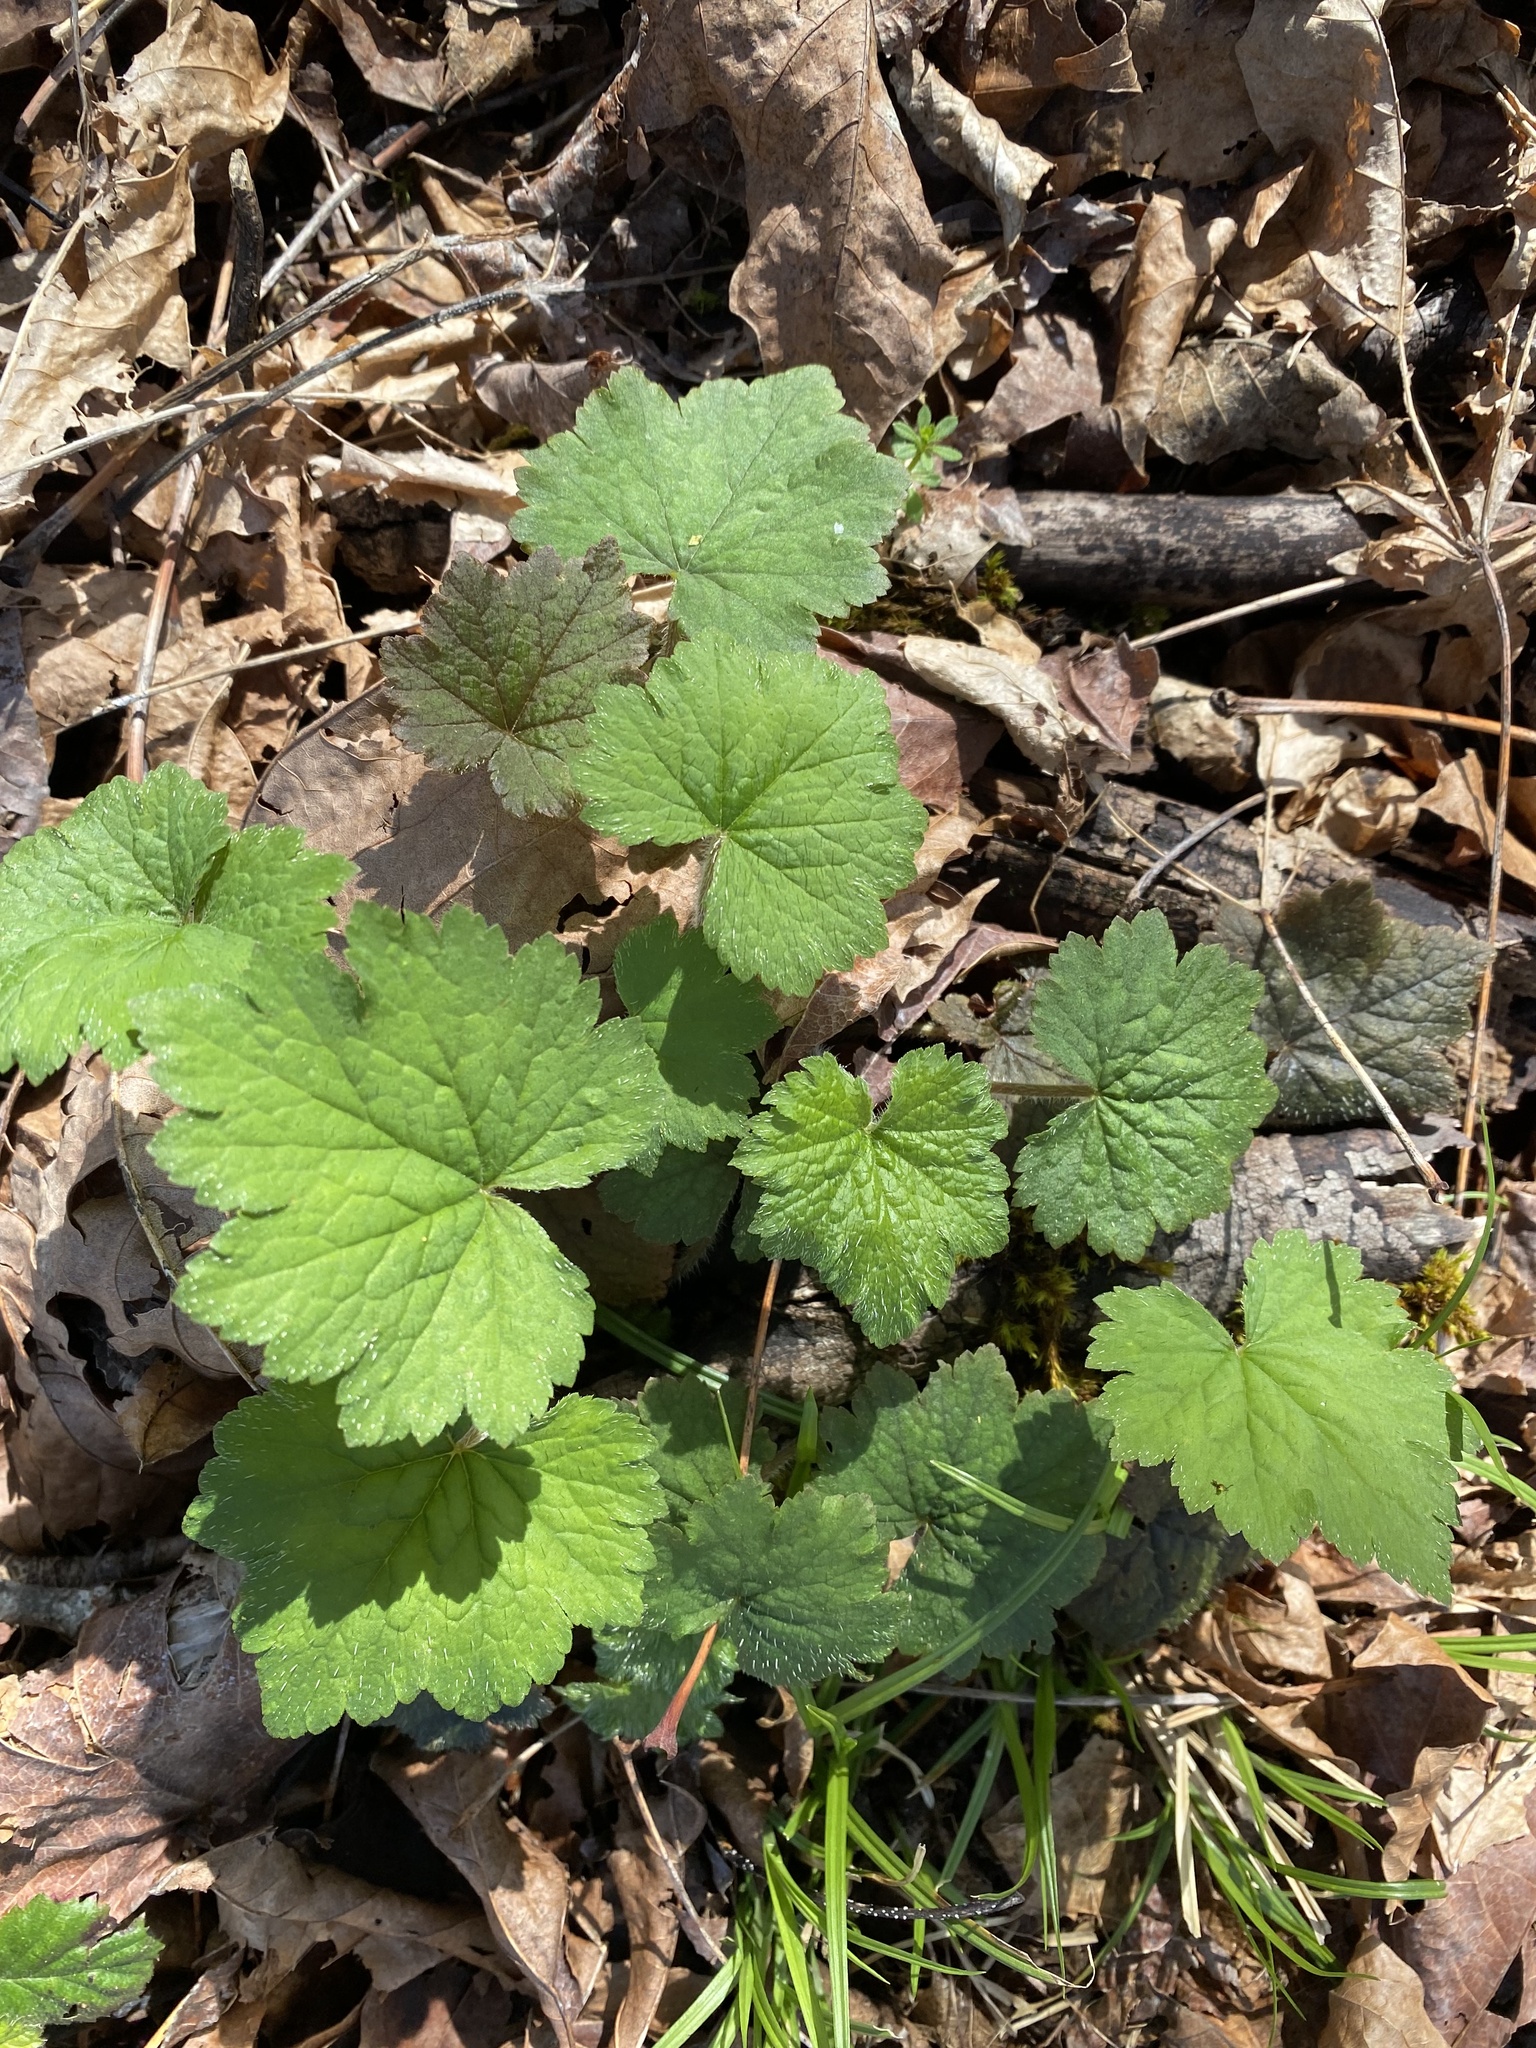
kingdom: Plantae
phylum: Tracheophyta
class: Magnoliopsida
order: Saxifragales
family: Saxifragaceae
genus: Tellima
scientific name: Tellima grandiflora
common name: Fringecups
